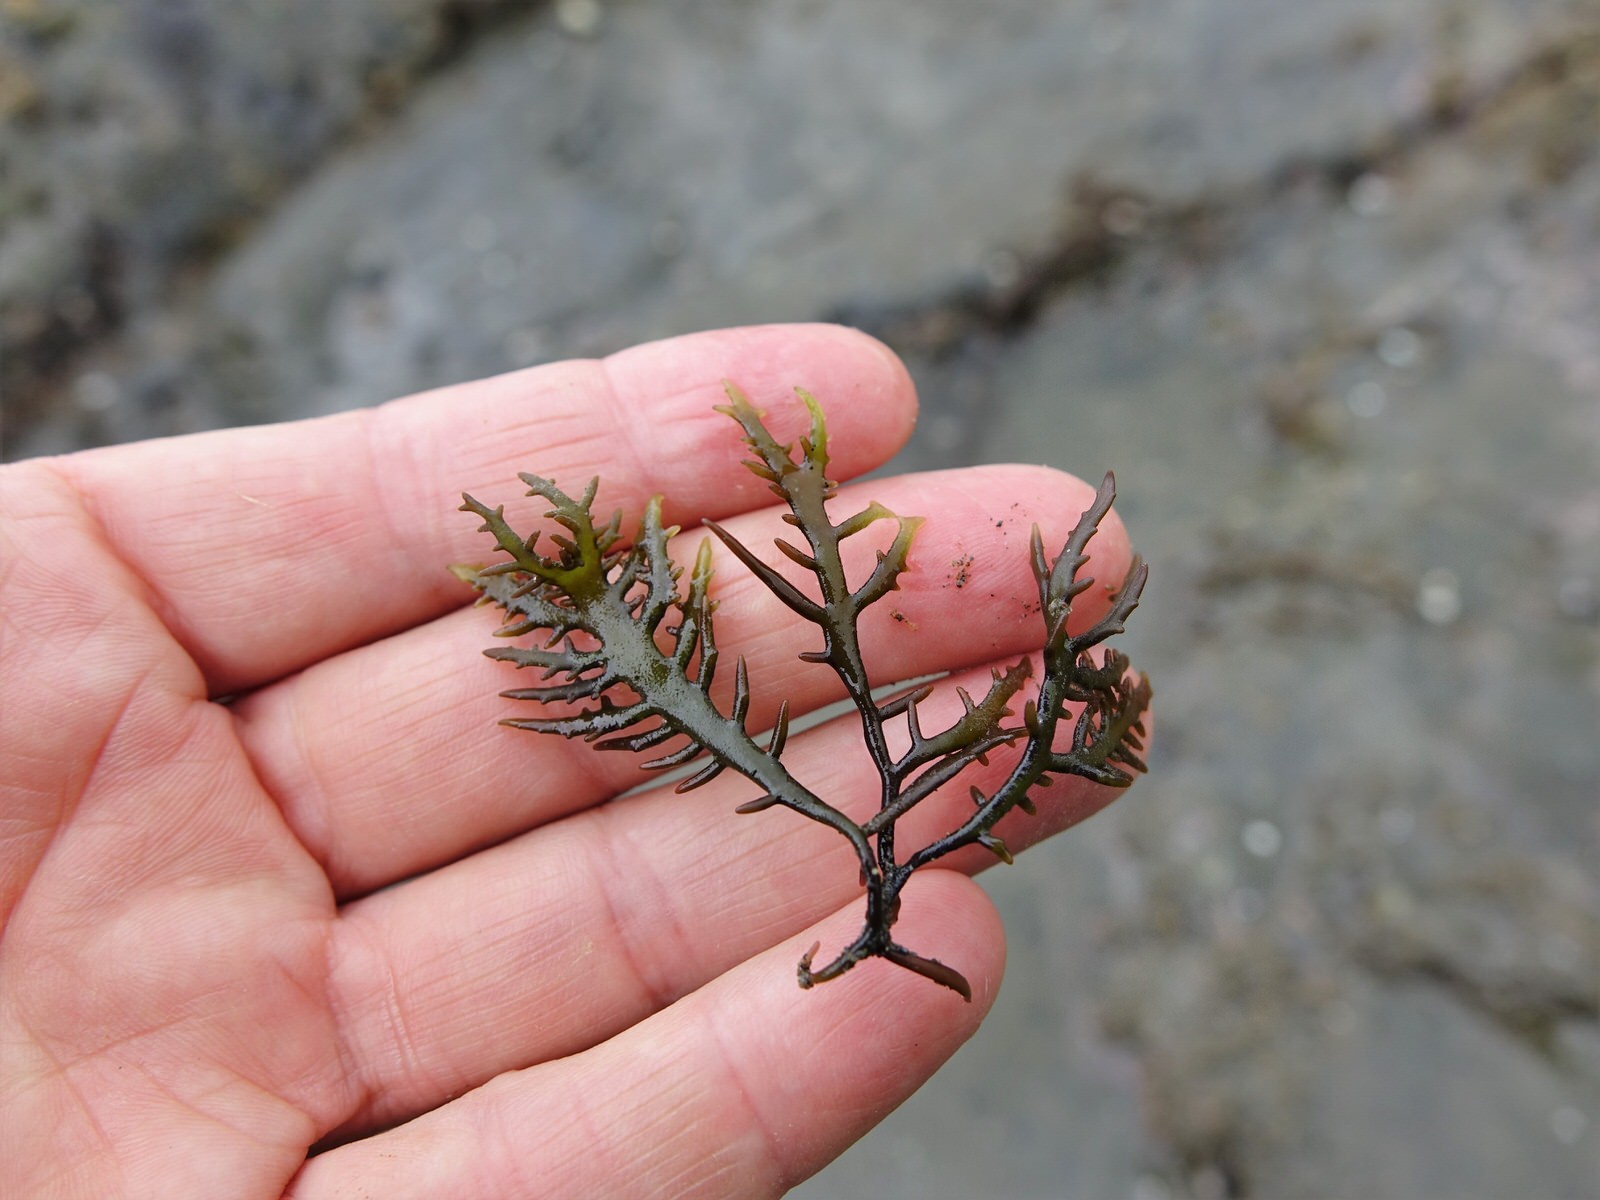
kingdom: Plantae
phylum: Rhodophyta
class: Florideophyceae
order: Gigartinales
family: Gigartinaceae
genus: Sarcothalia
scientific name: Sarcothalia marginifera
